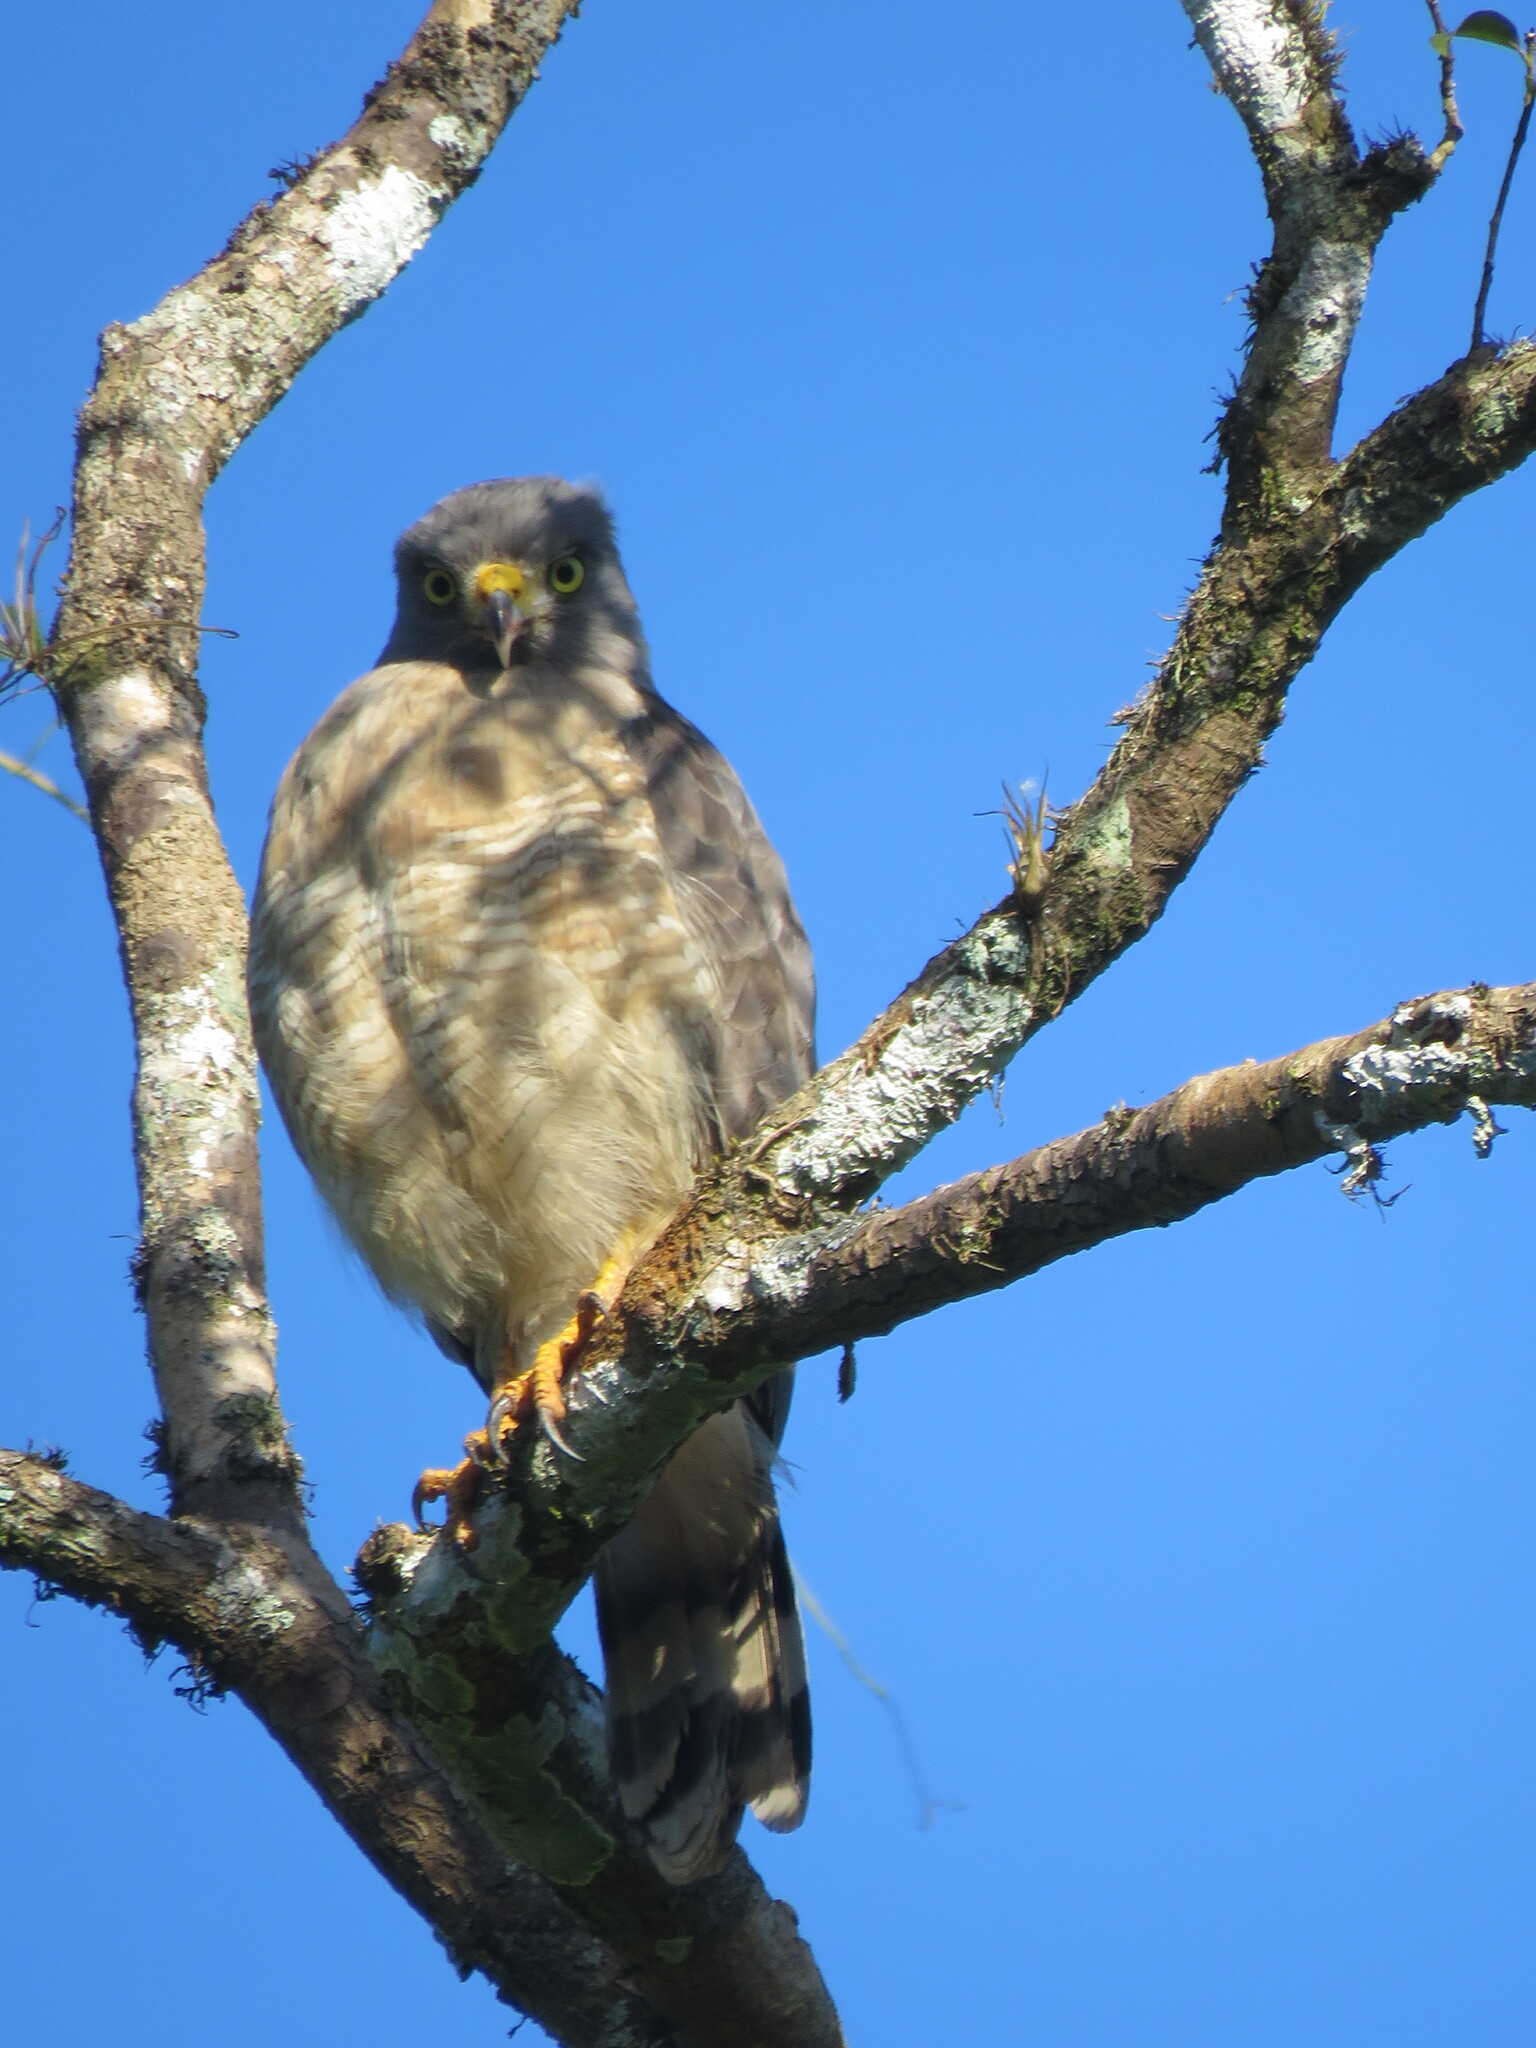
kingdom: Animalia
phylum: Chordata
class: Aves
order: Accipitriformes
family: Accipitridae
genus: Rupornis
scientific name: Rupornis magnirostris
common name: Roadside hawk
